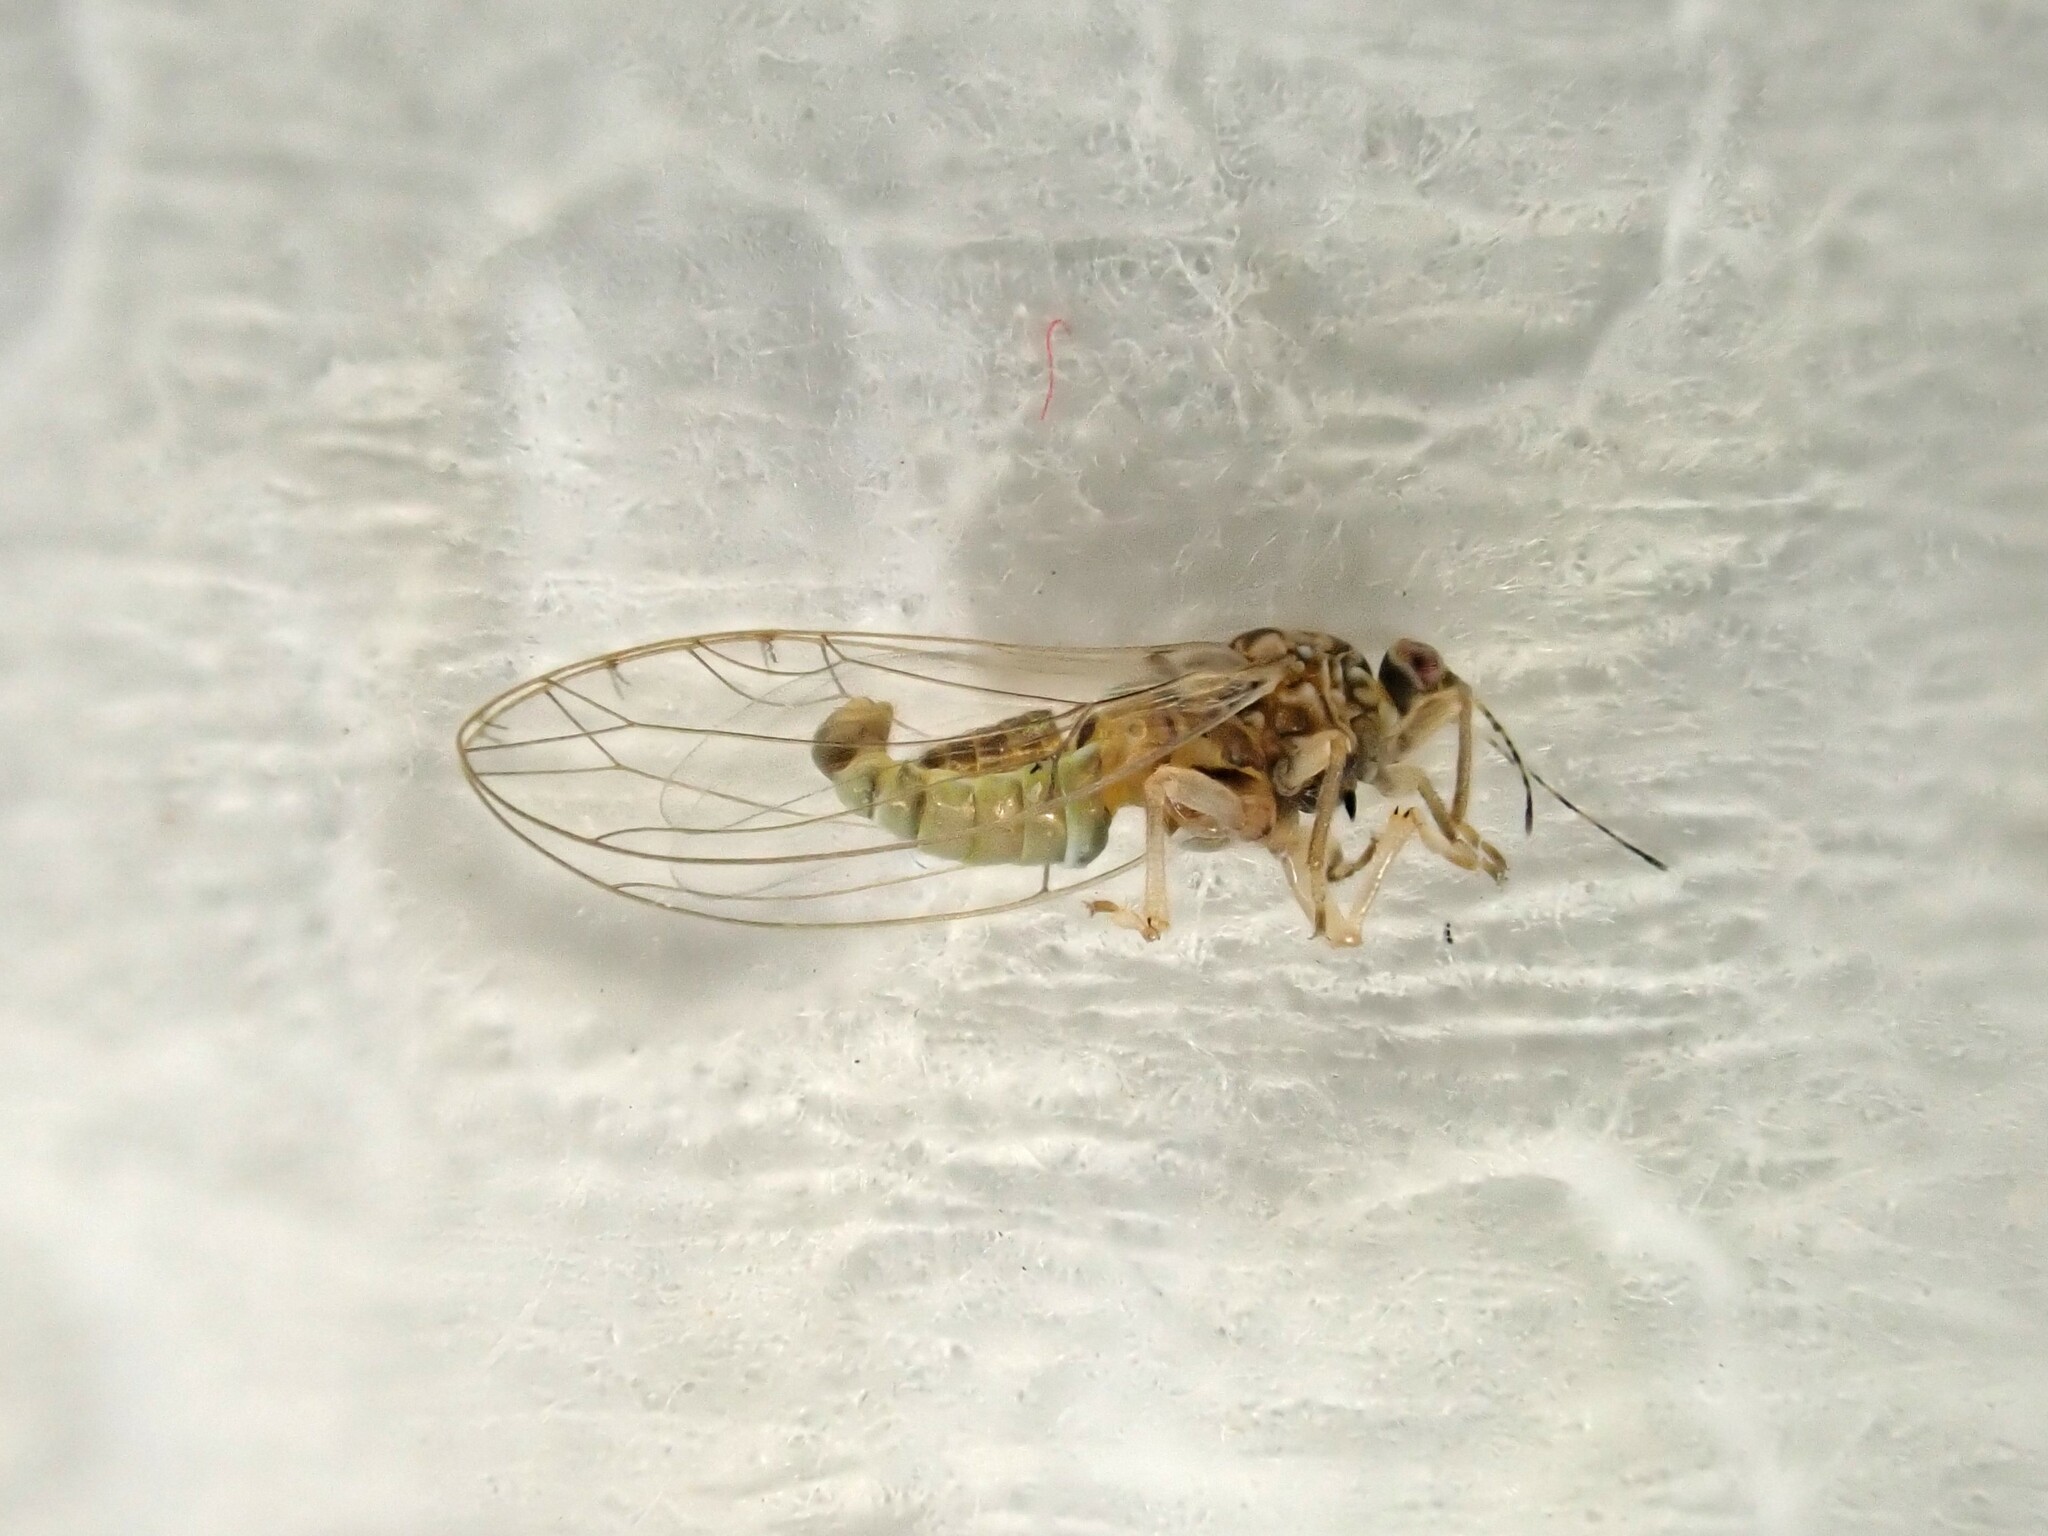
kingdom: Animalia
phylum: Arthropoda
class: Insecta
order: Hemiptera
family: Triozidae
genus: Bactericera
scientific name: Bactericera cockerelli
